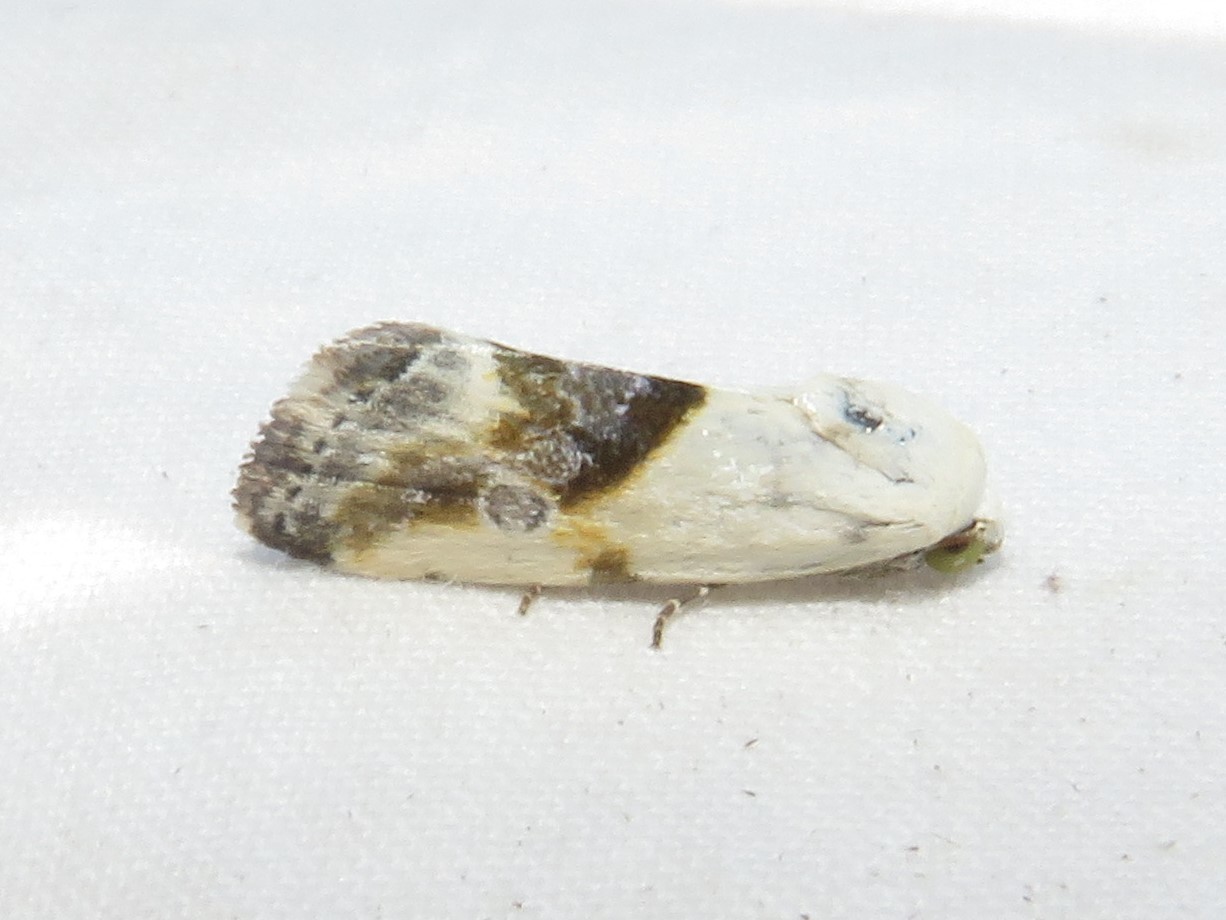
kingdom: Animalia
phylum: Arthropoda
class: Insecta
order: Lepidoptera
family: Noctuidae
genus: Acontia
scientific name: Acontia candefacta
